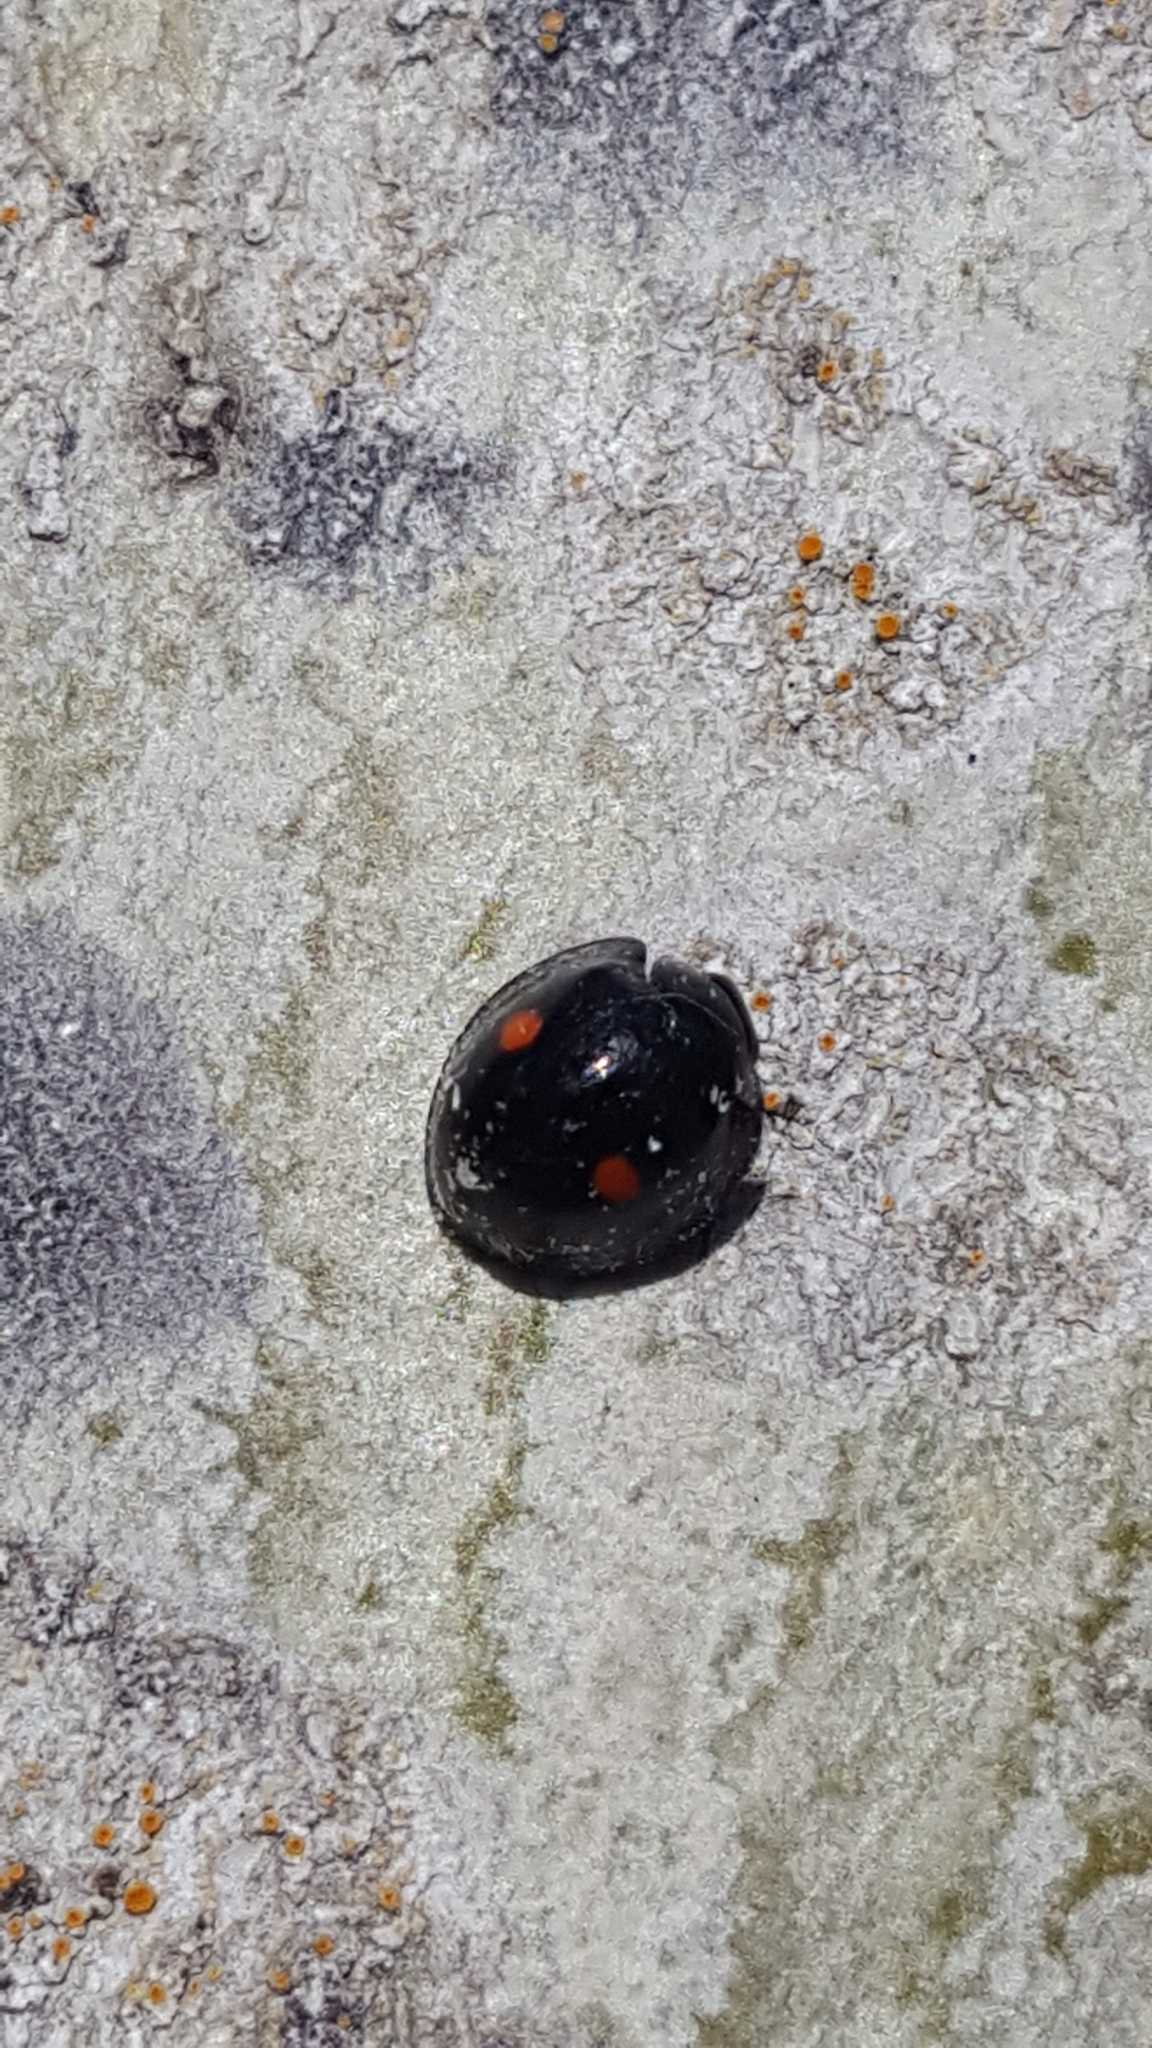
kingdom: Animalia
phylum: Arthropoda
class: Insecta
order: Coleoptera
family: Coccinellidae
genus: Chilocorus
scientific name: Chilocorus stigma
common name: Twicestabbed lady beetle
